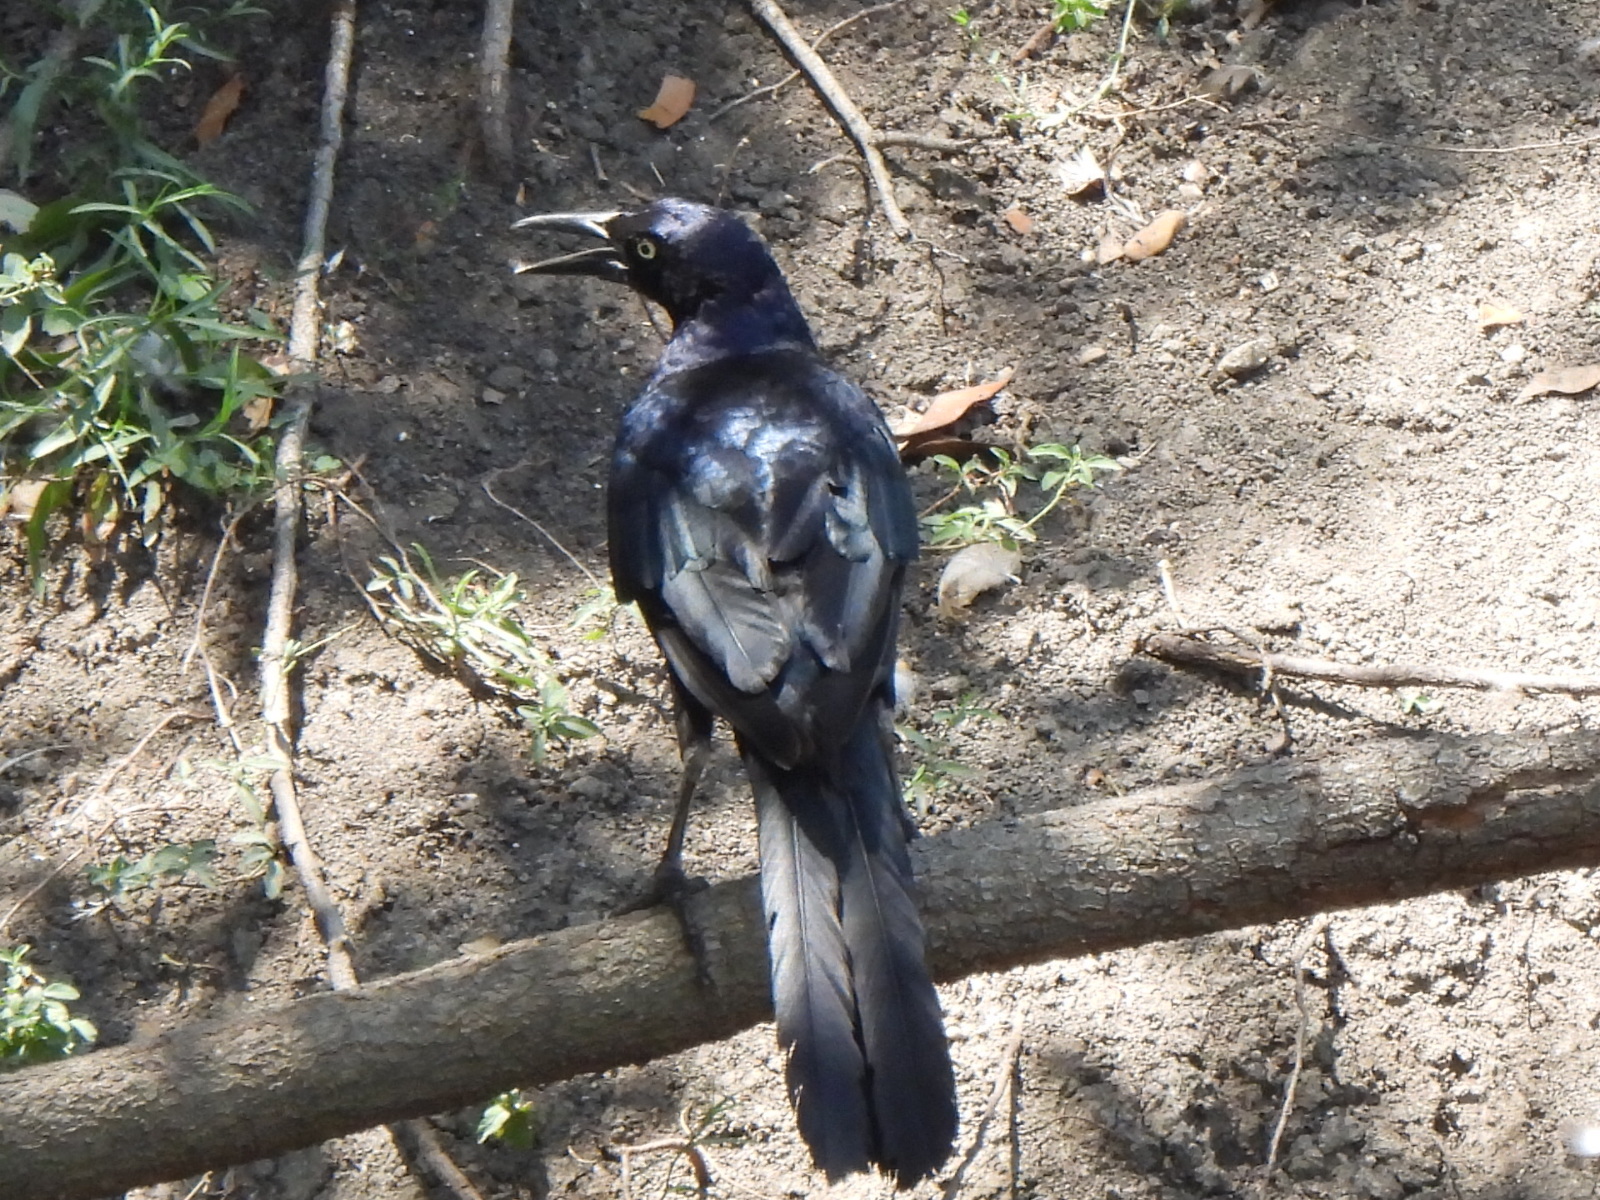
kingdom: Animalia
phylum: Chordata
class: Aves
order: Passeriformes
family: Icteridae
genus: Quiscalus
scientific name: Quiscalus mexicanus
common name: Great-tailed grackle
